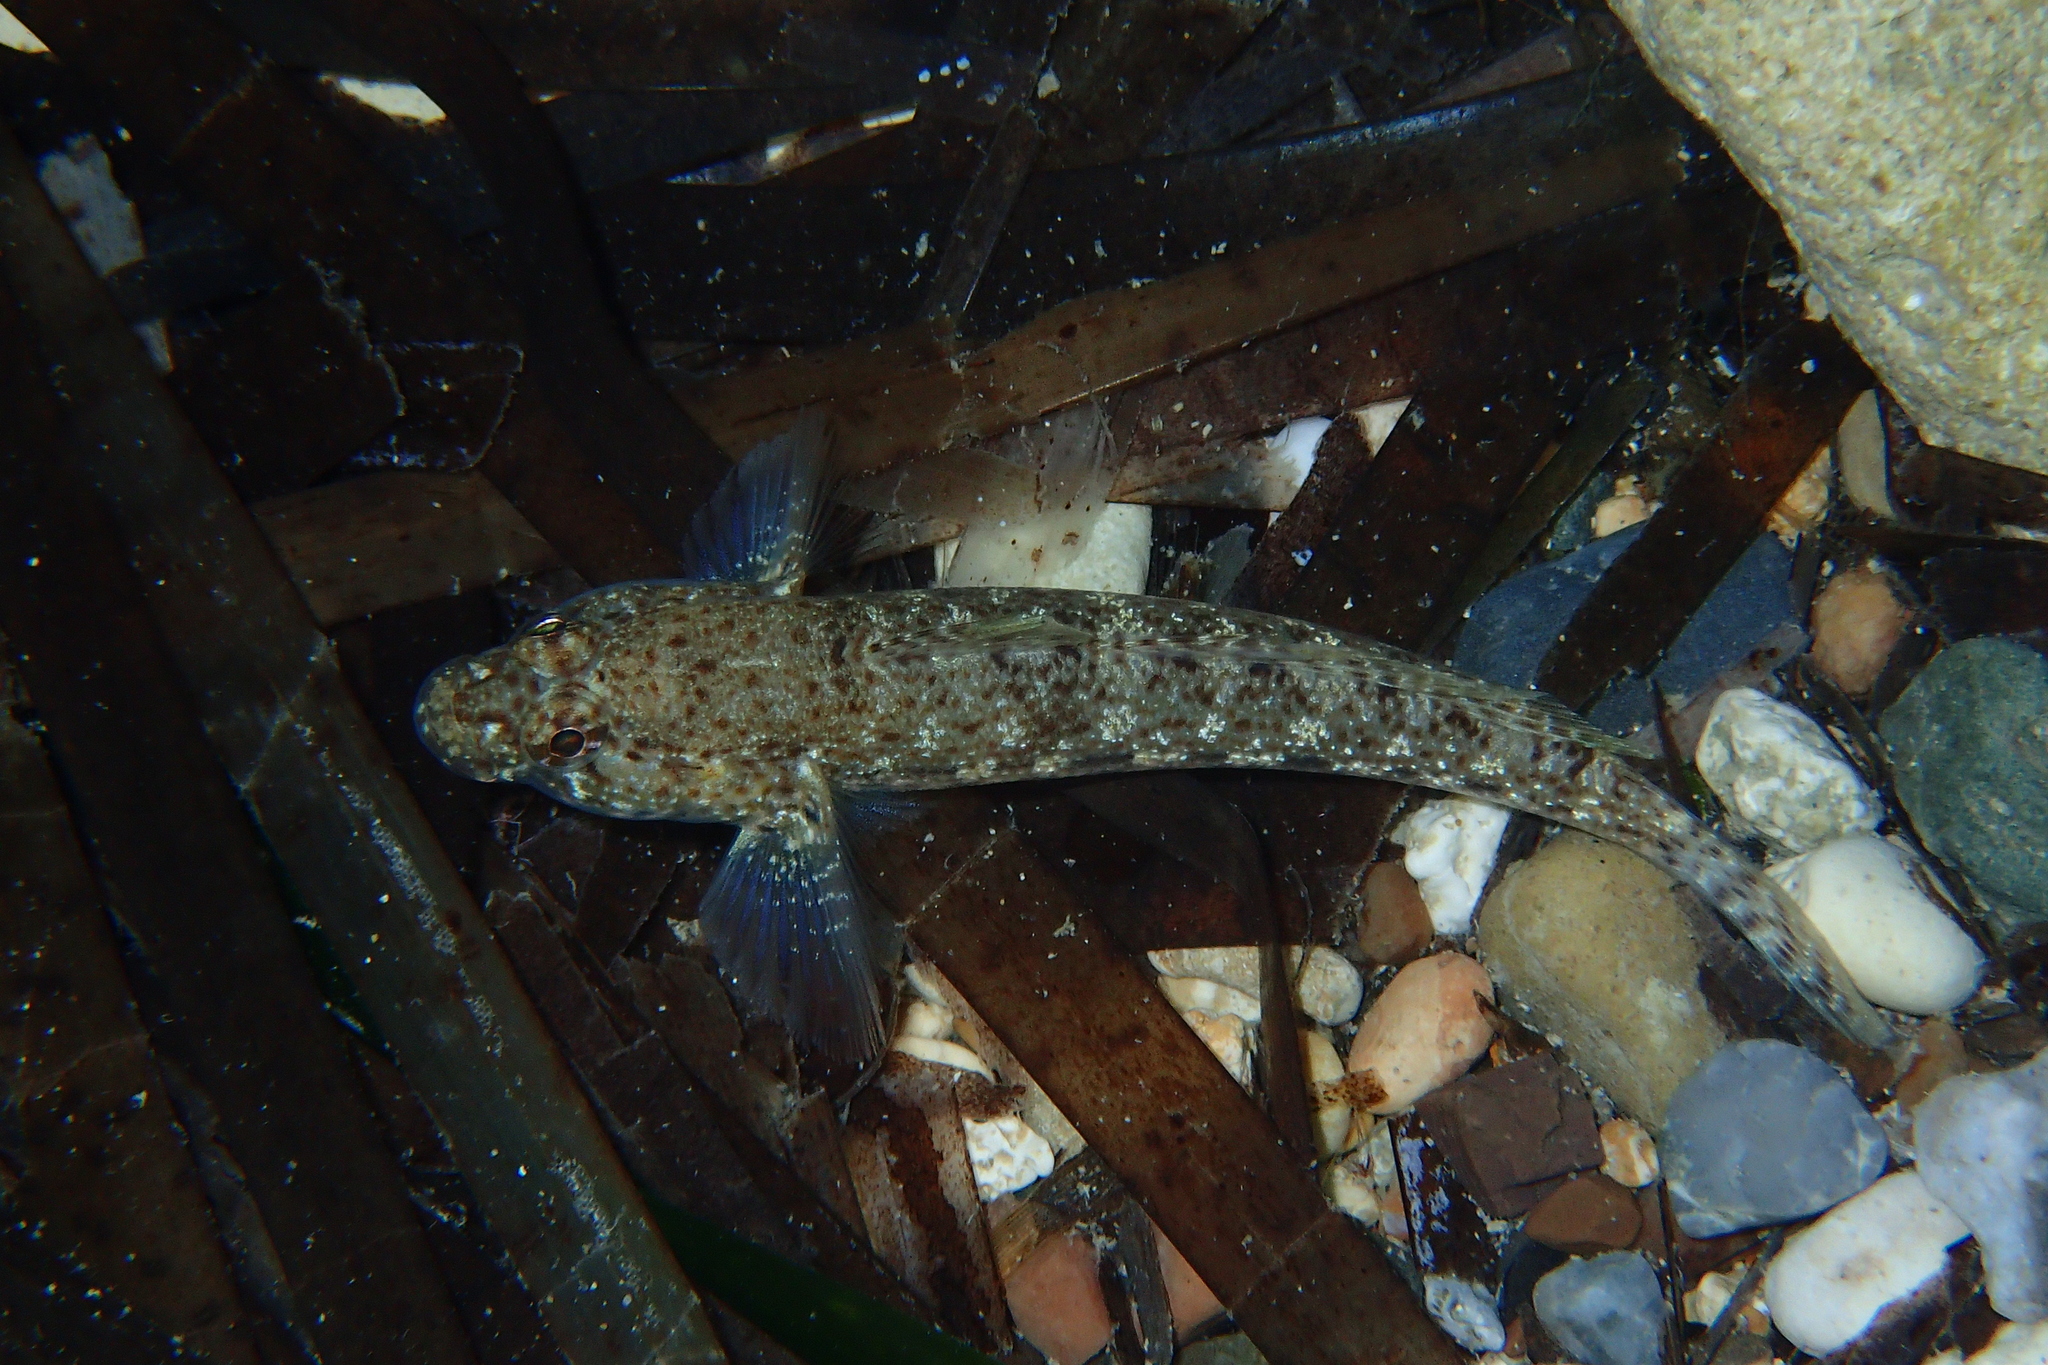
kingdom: Animalia
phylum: Chordata
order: Perciformes
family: Gobiidae
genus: Gobius
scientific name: Gobius incognitus
